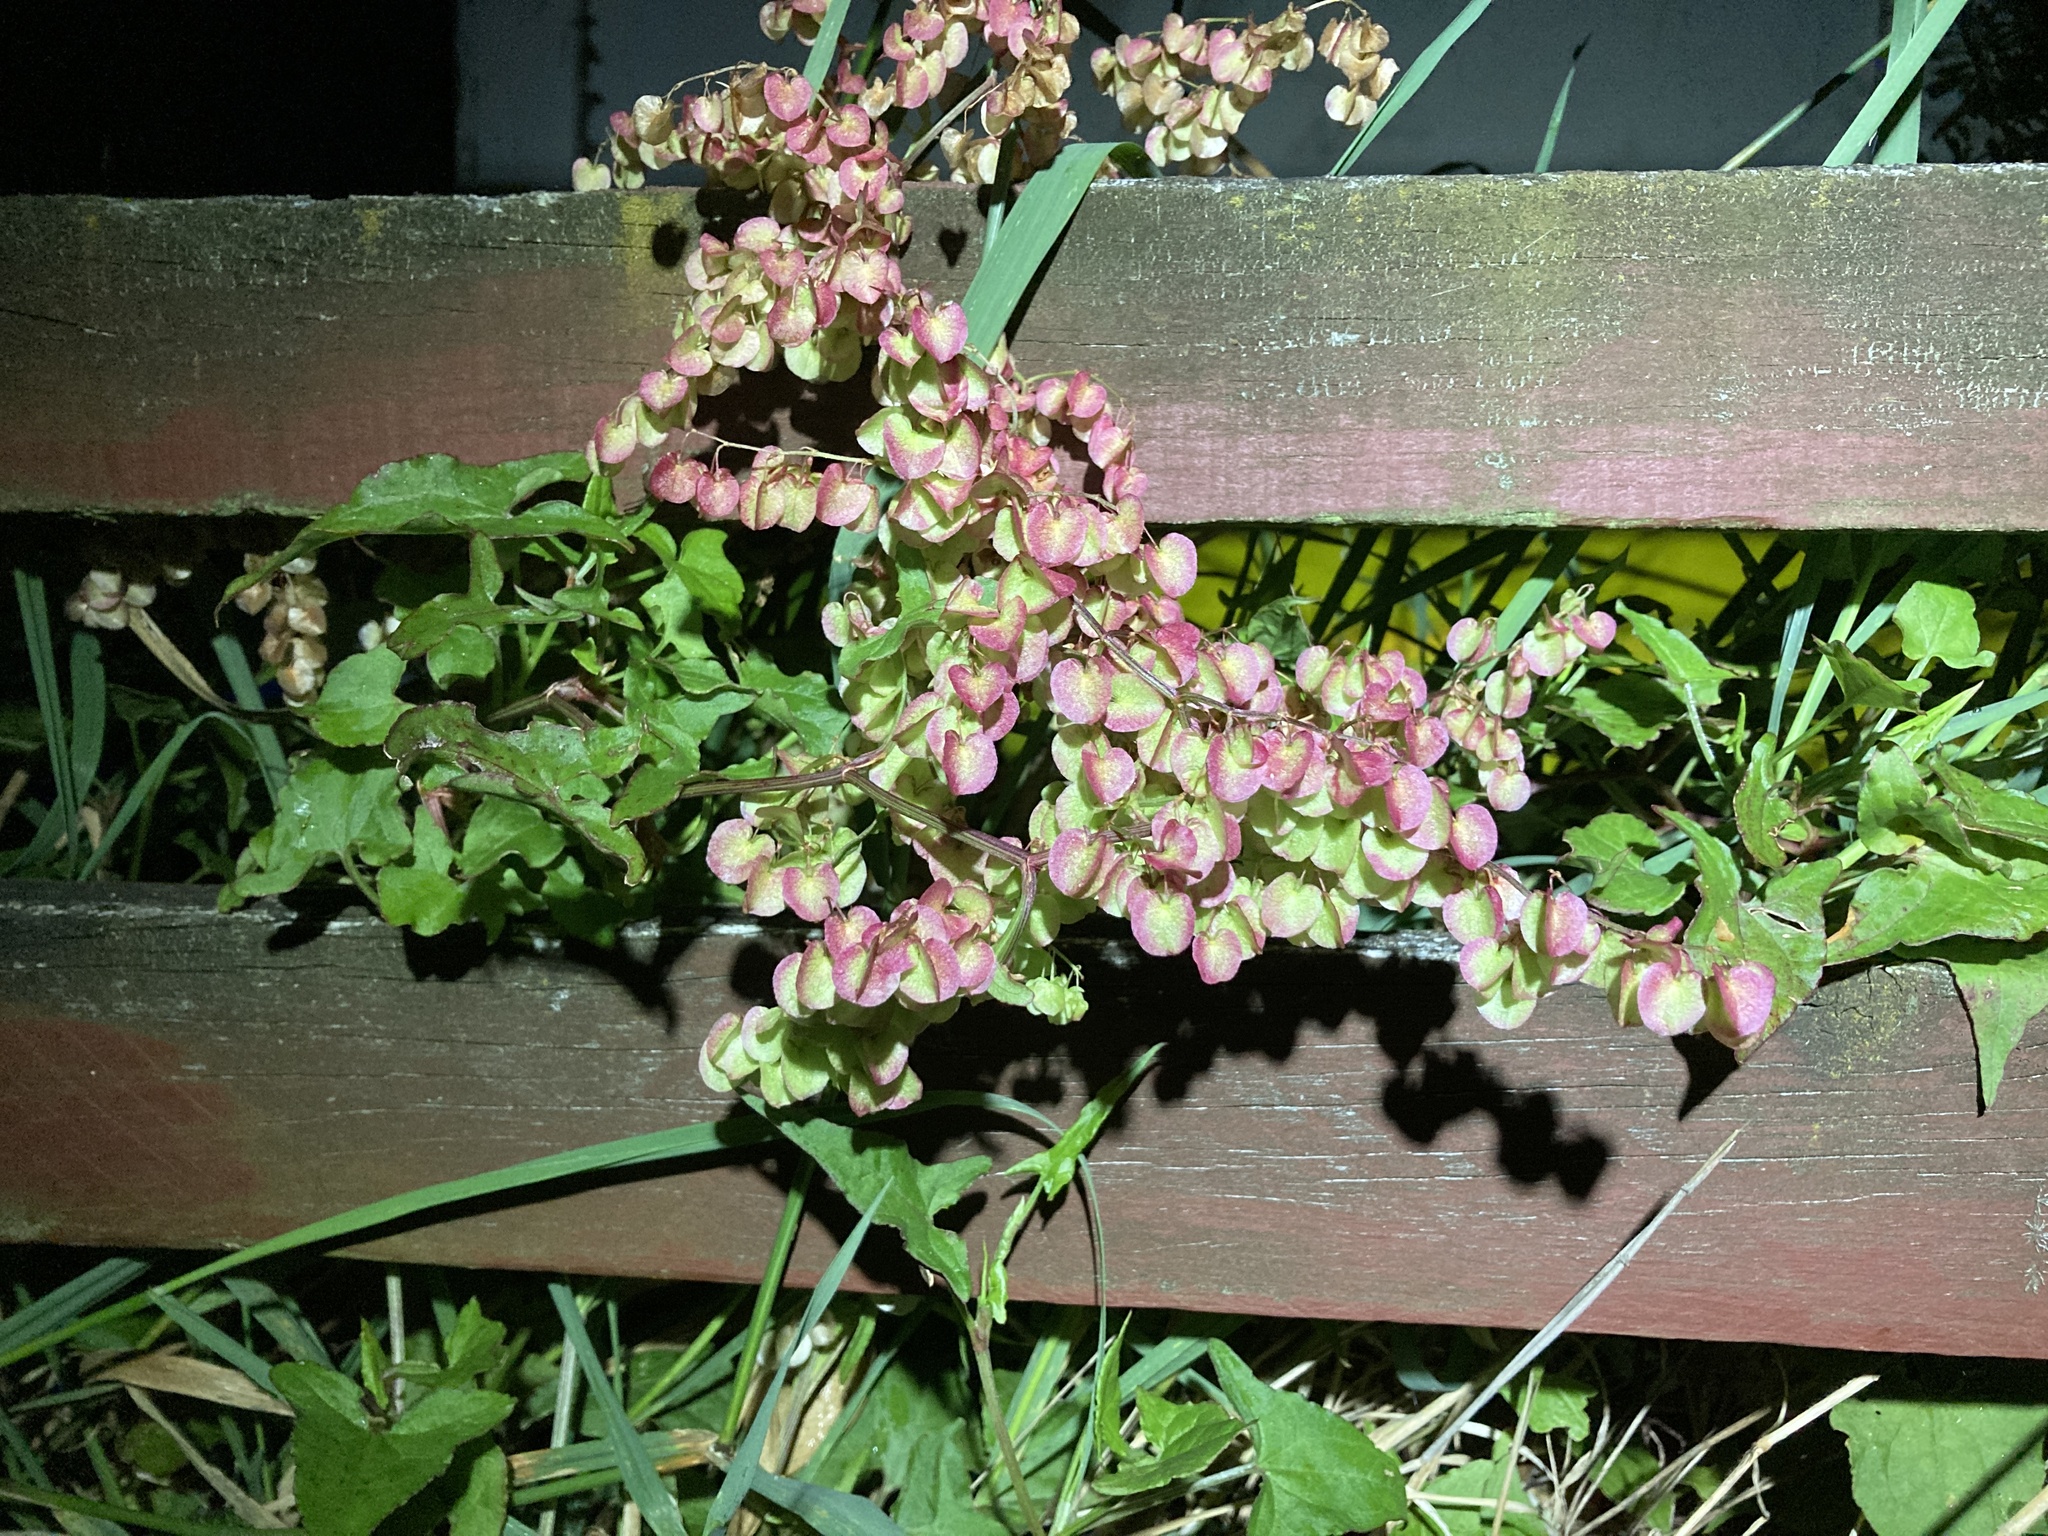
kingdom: Plantae
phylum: Tracheophyta
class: Magnoliopsida
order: Caryophyllales
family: Polygonaceae
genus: Rumex
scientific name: Rumex sagittatus
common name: Climbing dock
